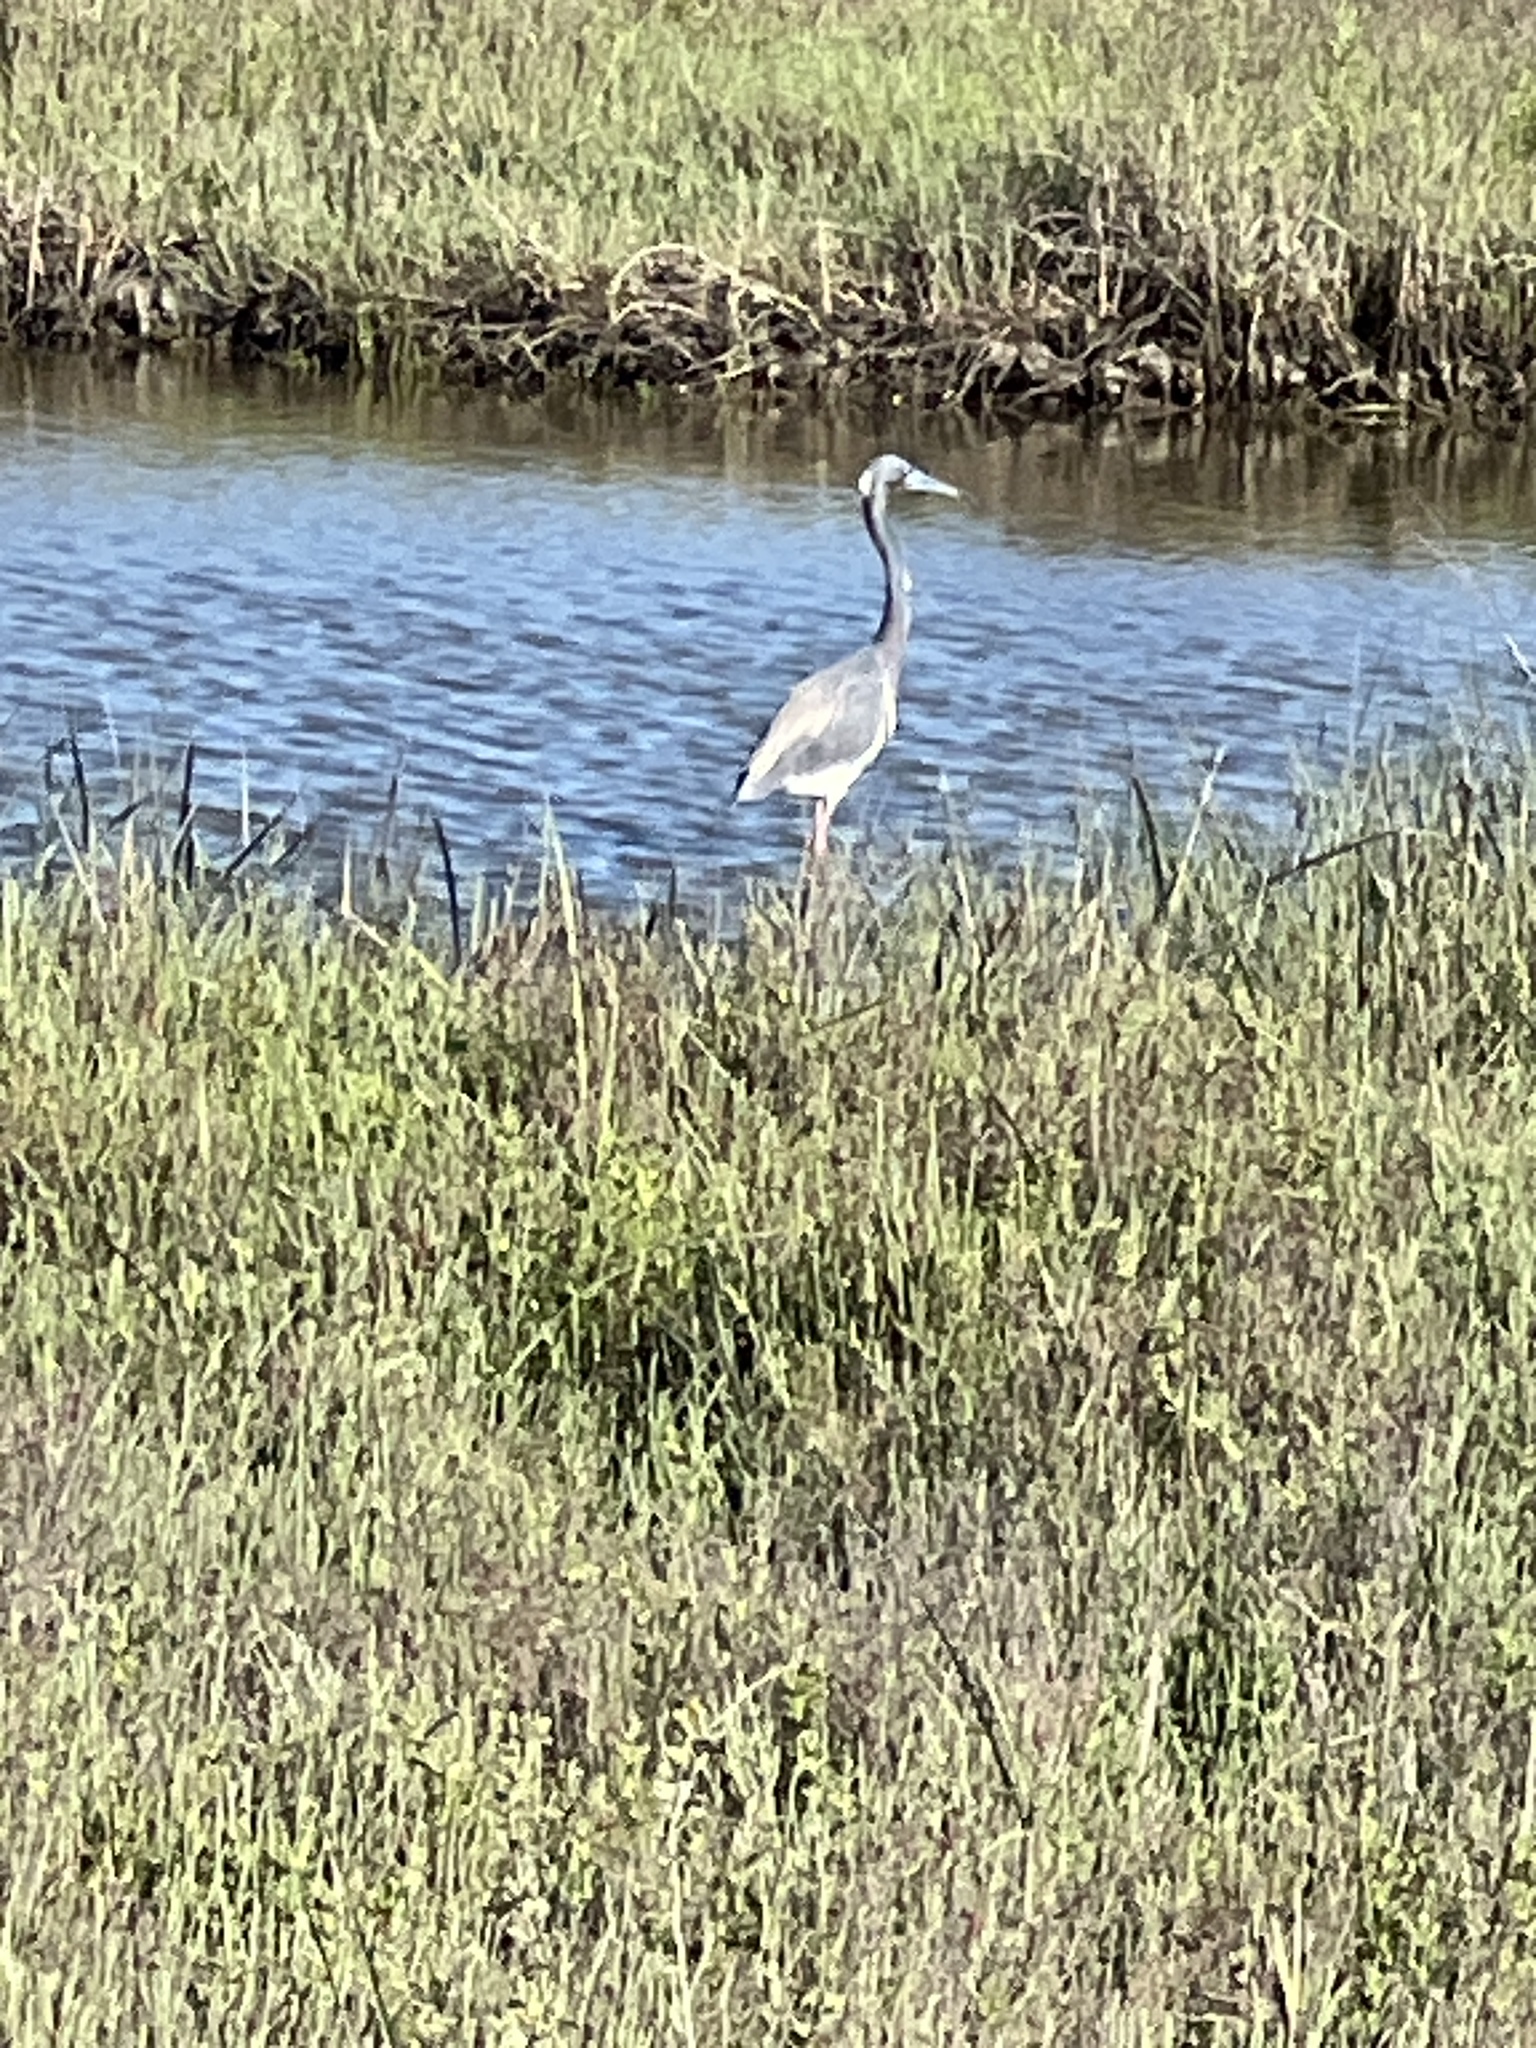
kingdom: Animalia
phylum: Chordata
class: Aves
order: Pelecaniformes
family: Ardeidae
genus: Egretta
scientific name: Egretta tricolor
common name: Tricolored heron
